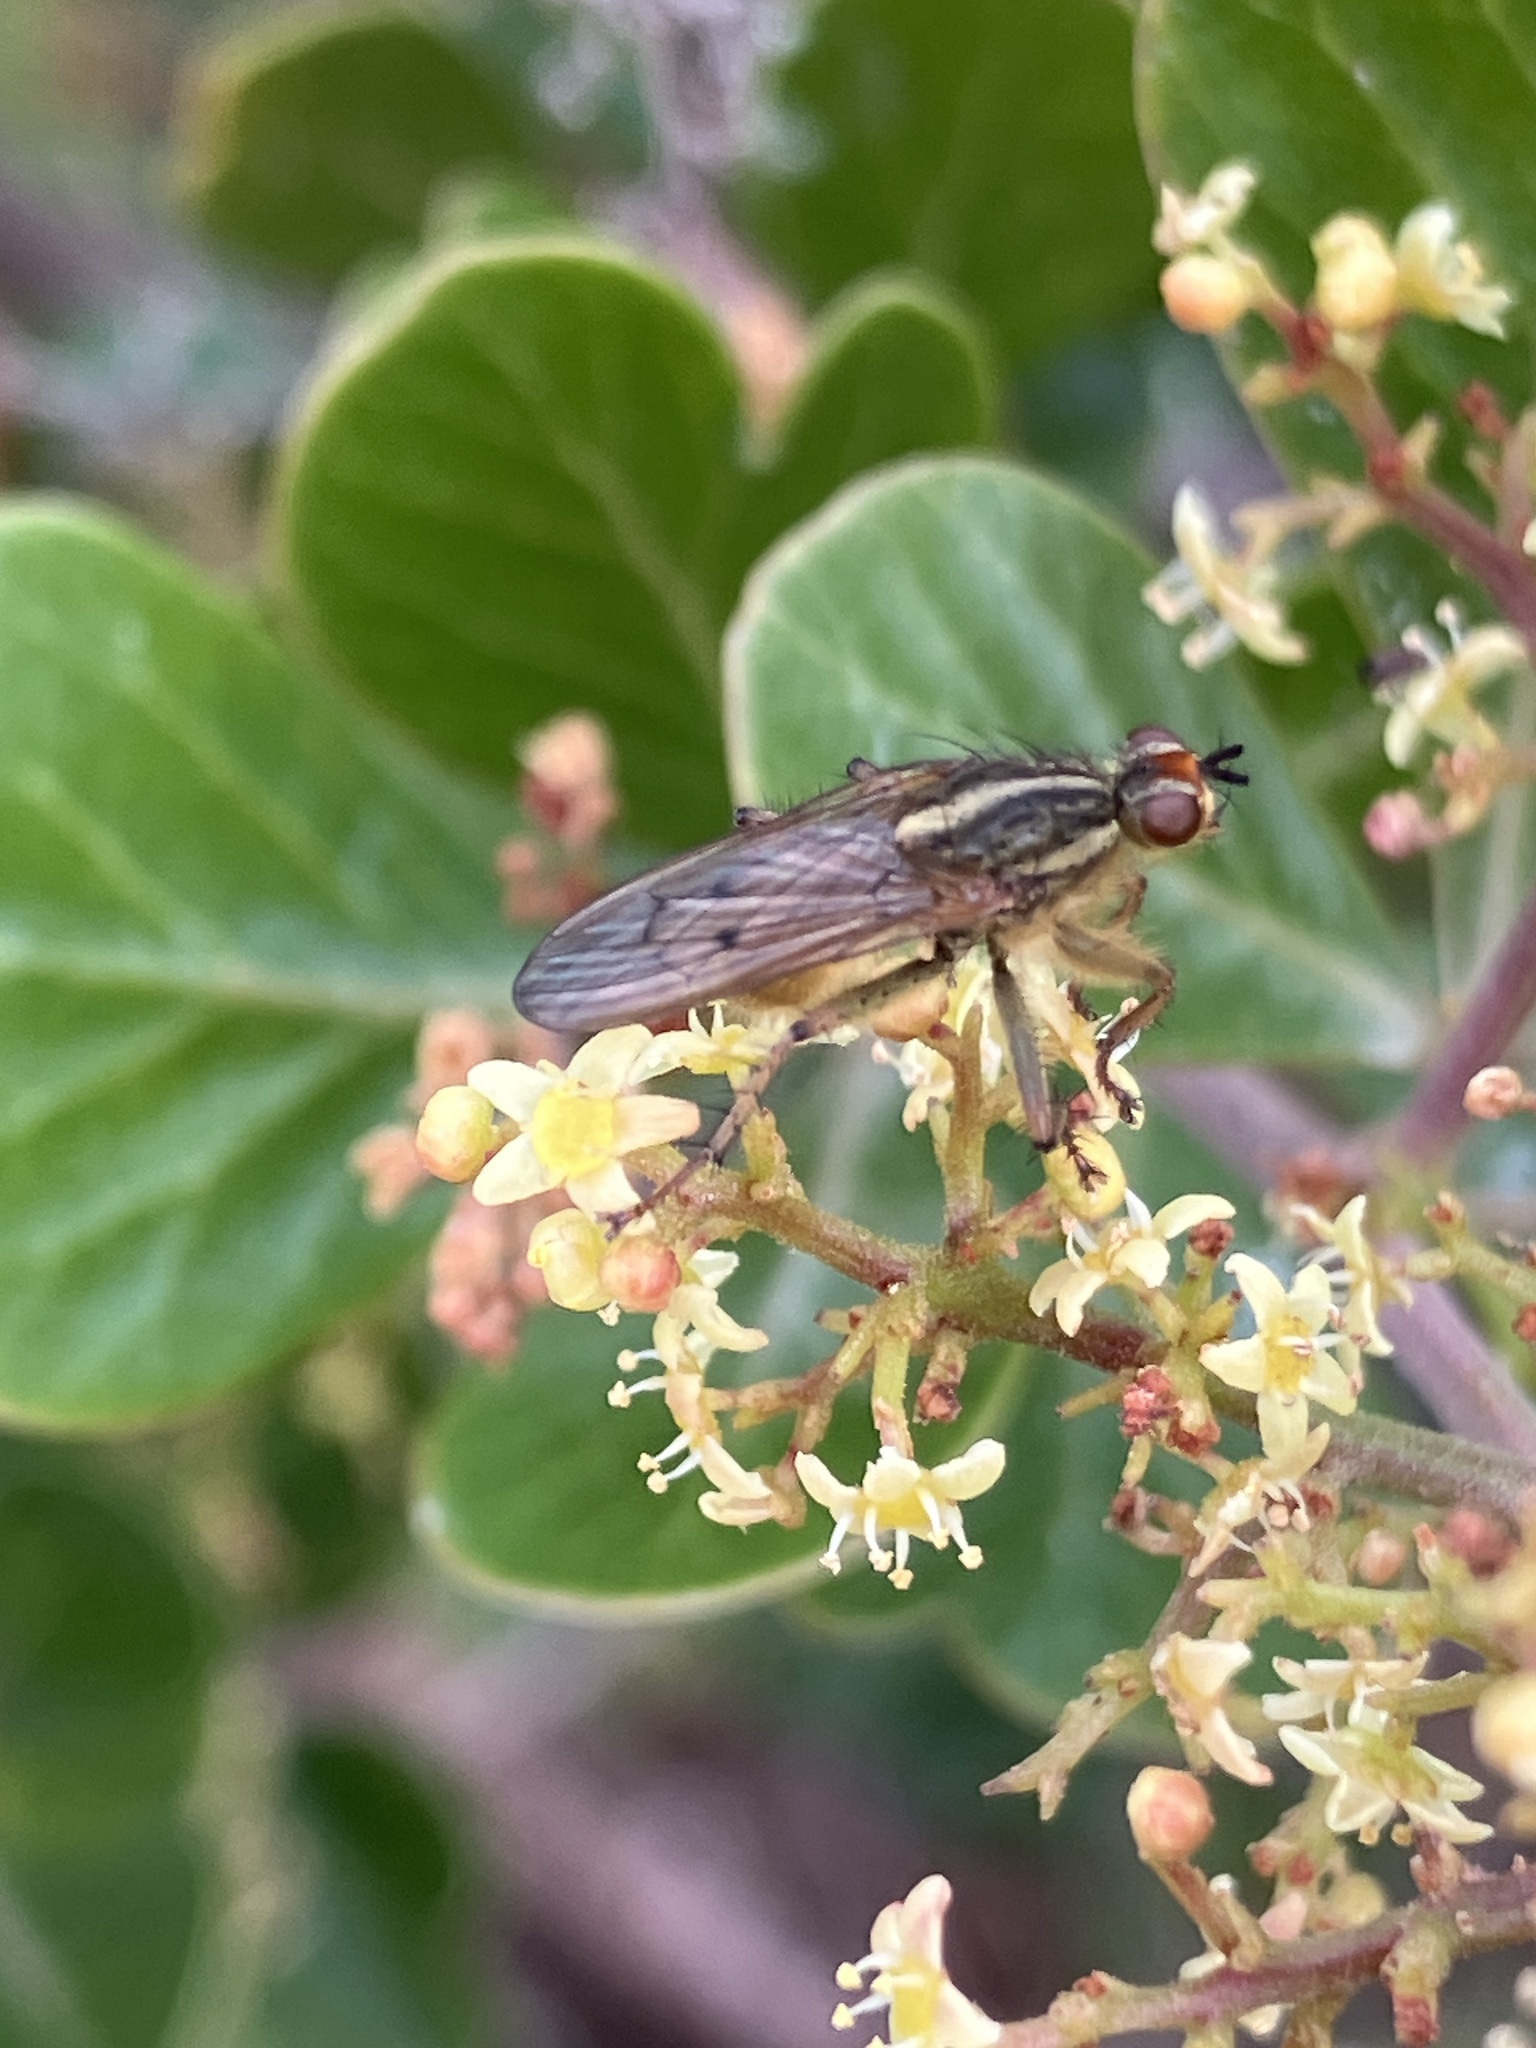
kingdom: Animalia
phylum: Arthropoda
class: Insecta
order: Diptera
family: Scathophagidae
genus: Scathophaga
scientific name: Scathophaga soror
